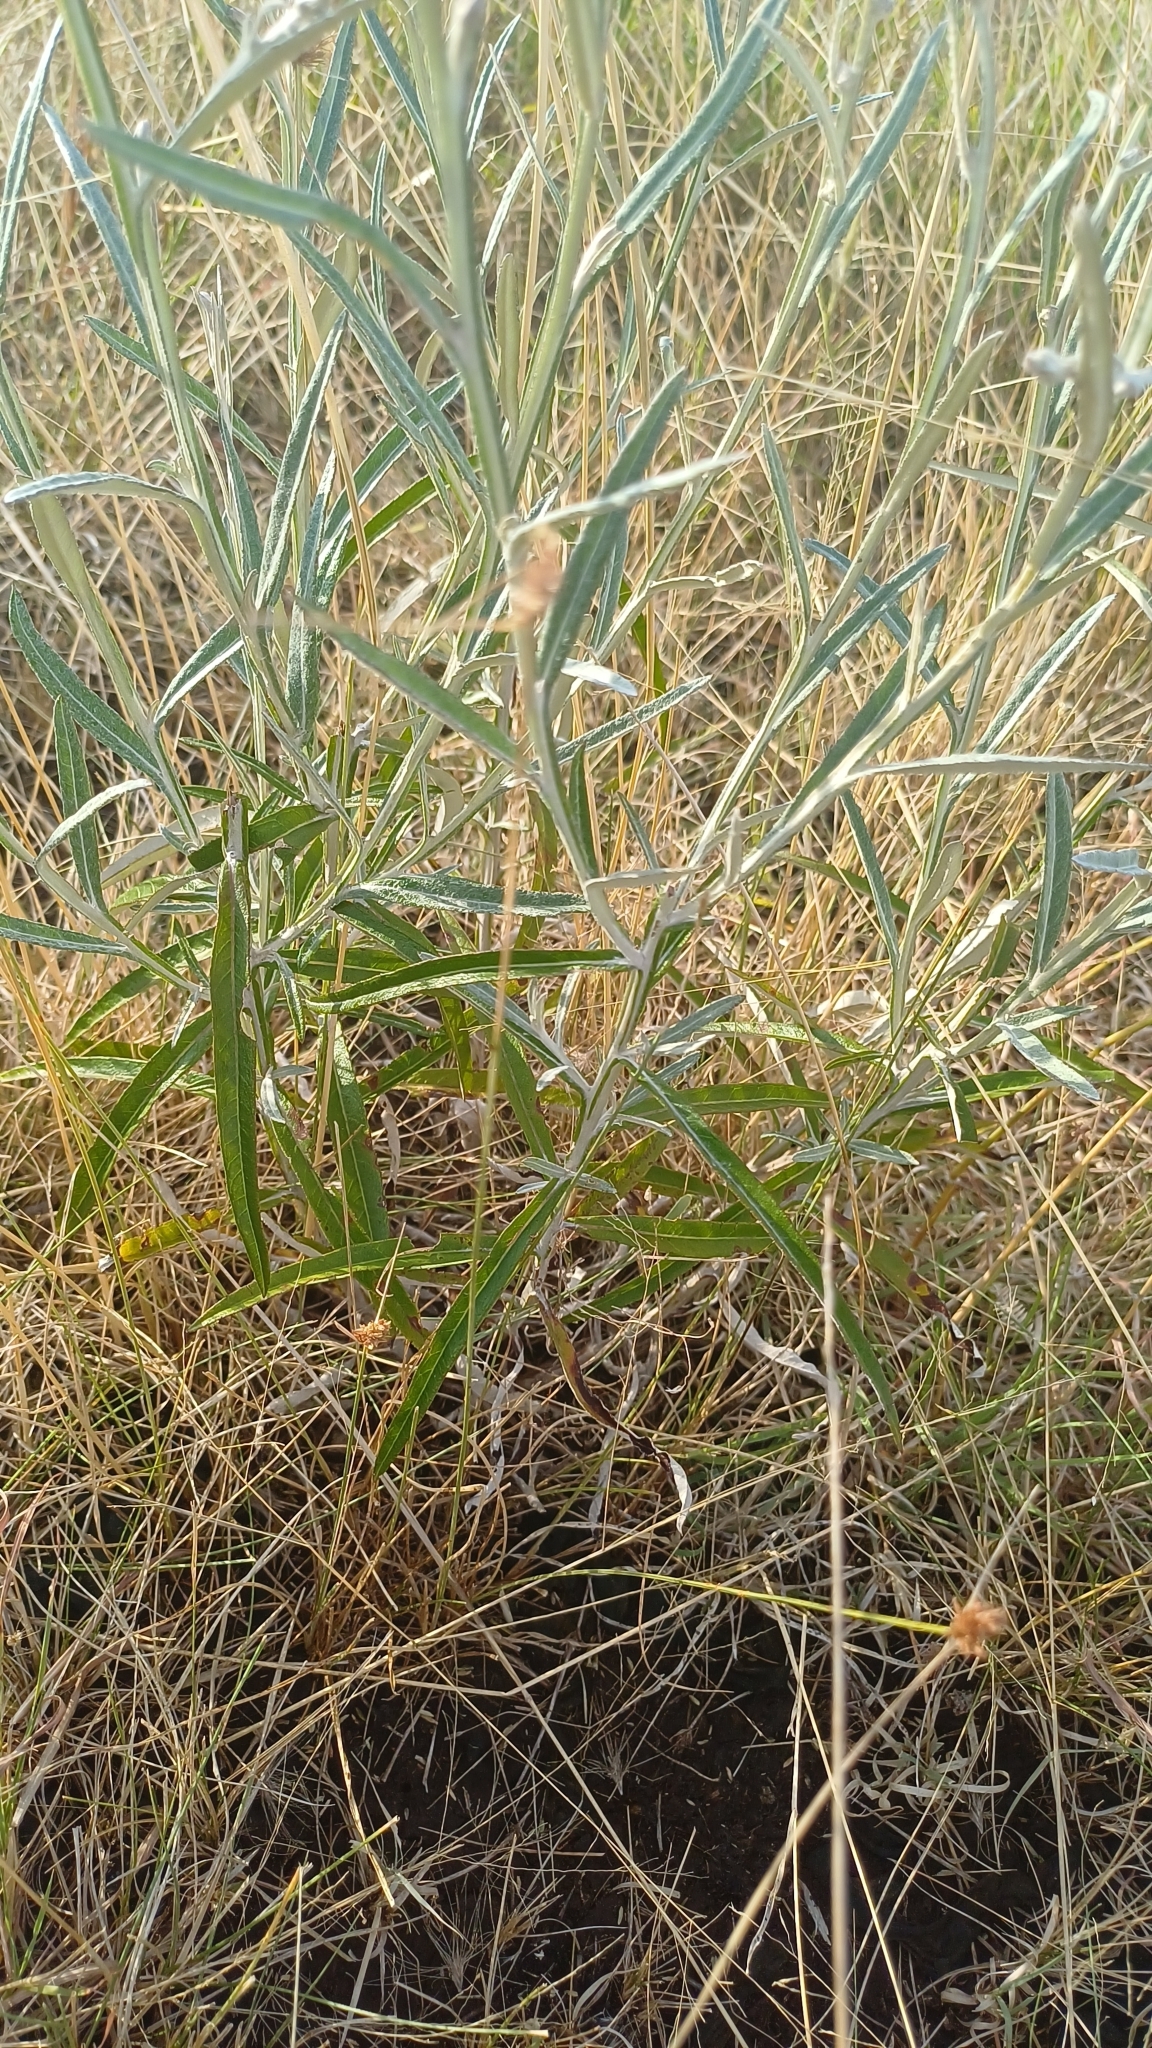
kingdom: Plantae
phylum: Tracheophyta
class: Magnoliopsida
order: Asterales
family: Asteraceae
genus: Pterocaulon
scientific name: Pterocaulon virgatum
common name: Wand blackroot
